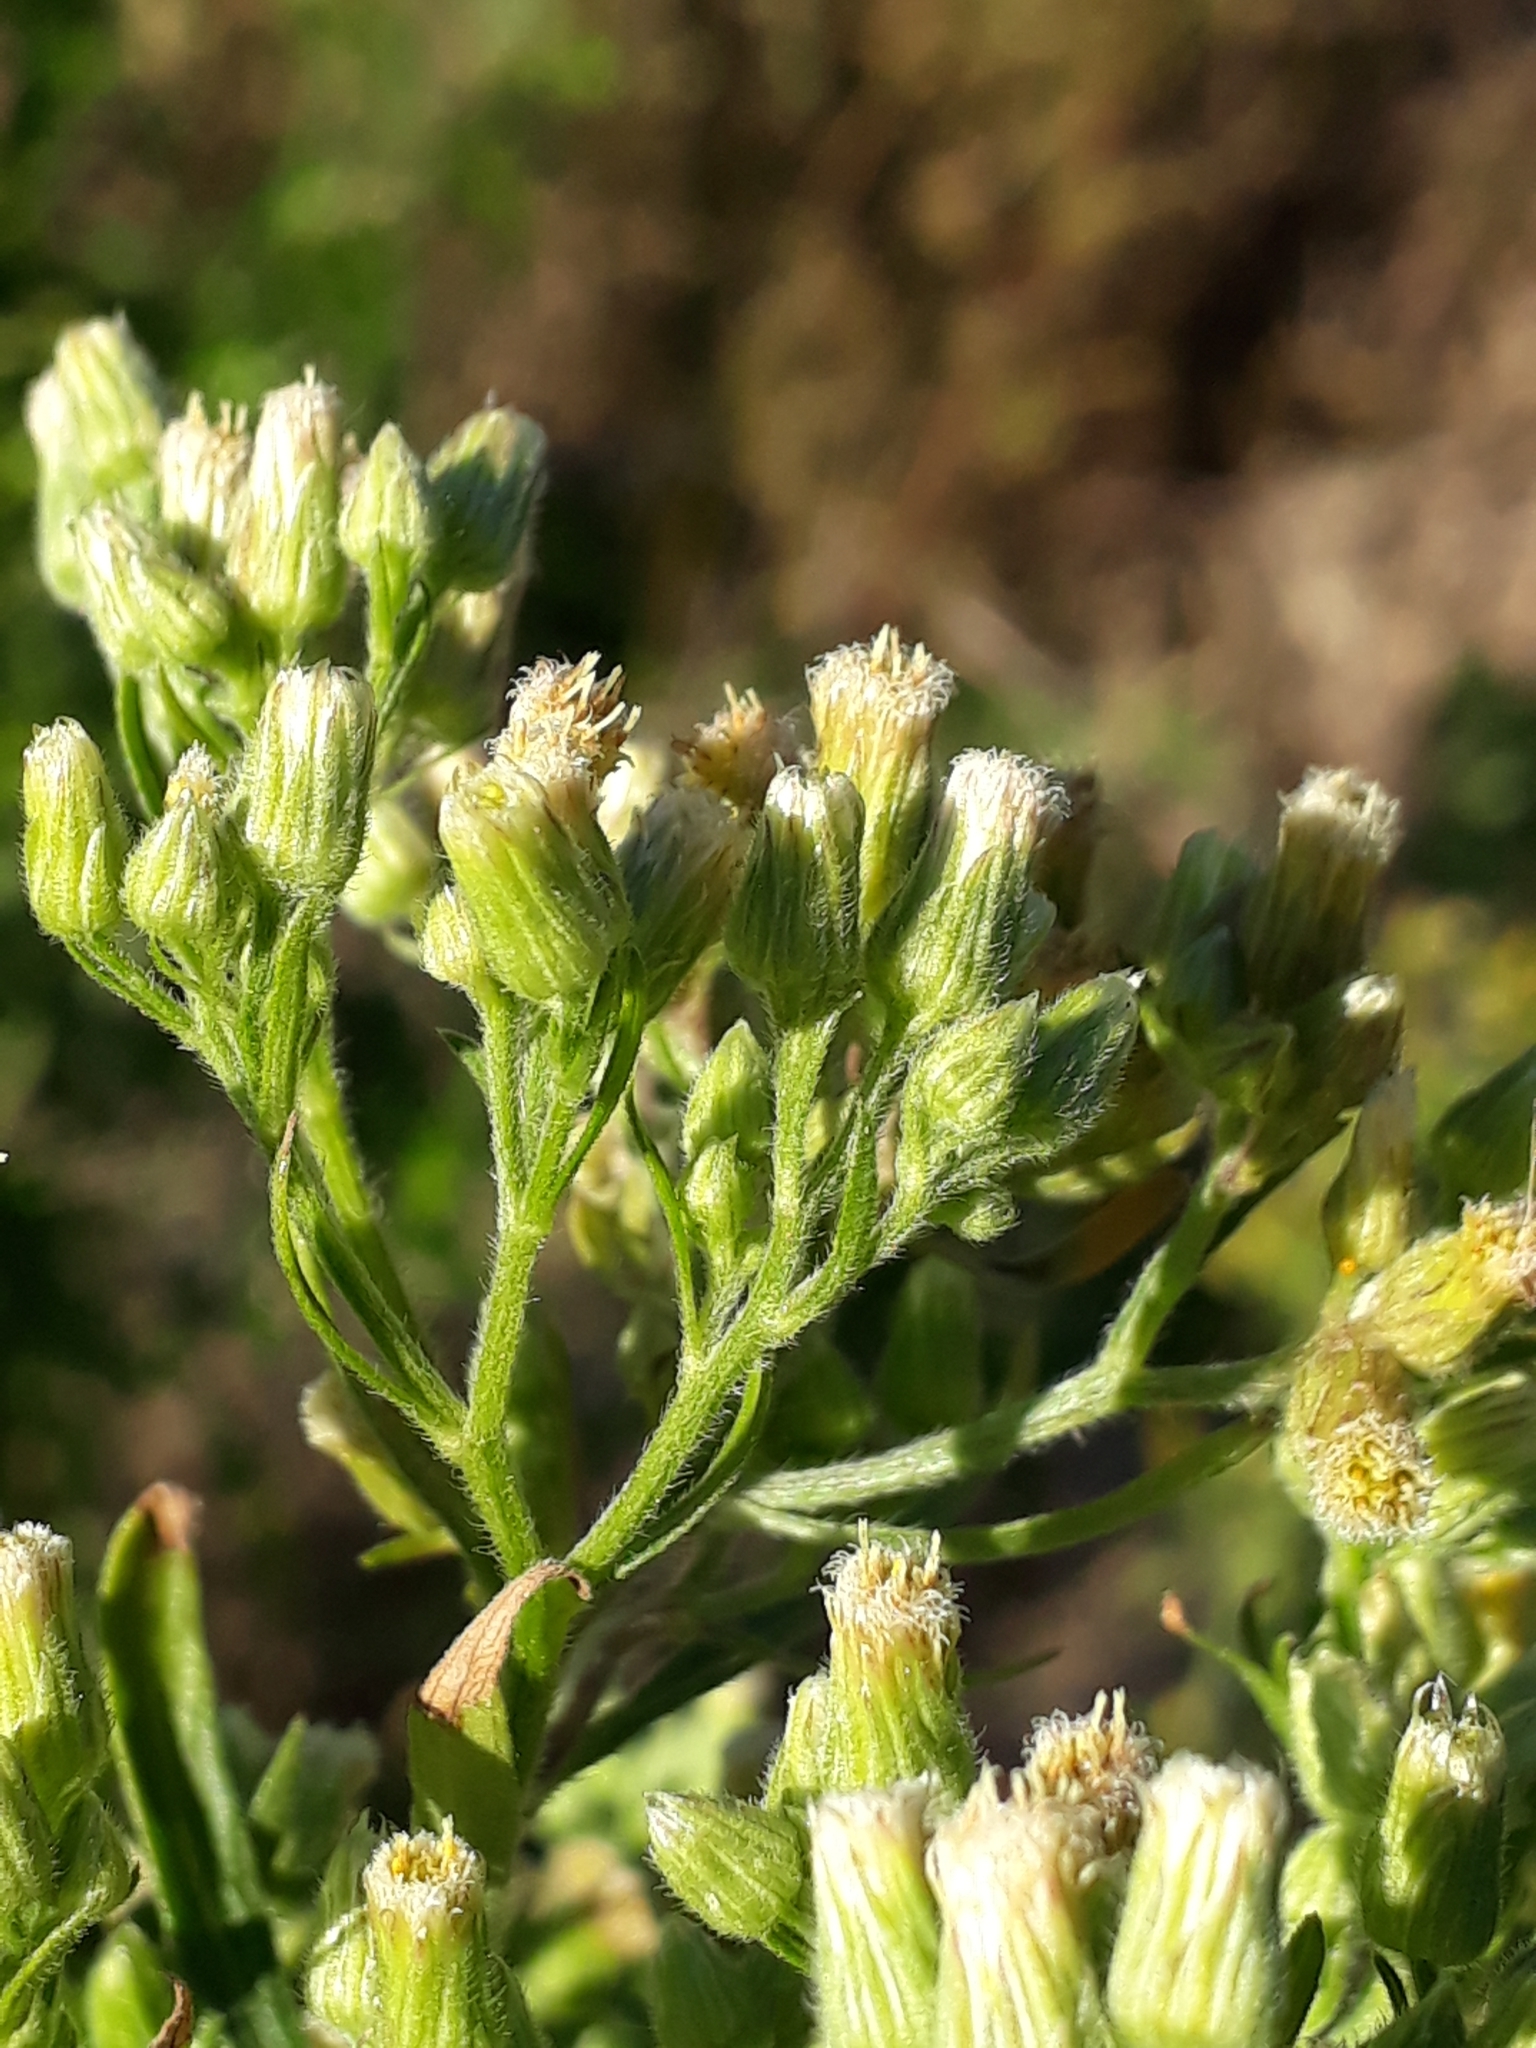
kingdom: Plantae
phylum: Tracheophyta
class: Magnoliopsida
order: Asterales
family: Asteraceae
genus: Erigeron
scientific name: Erigeron sumatrensis
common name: Daisy
